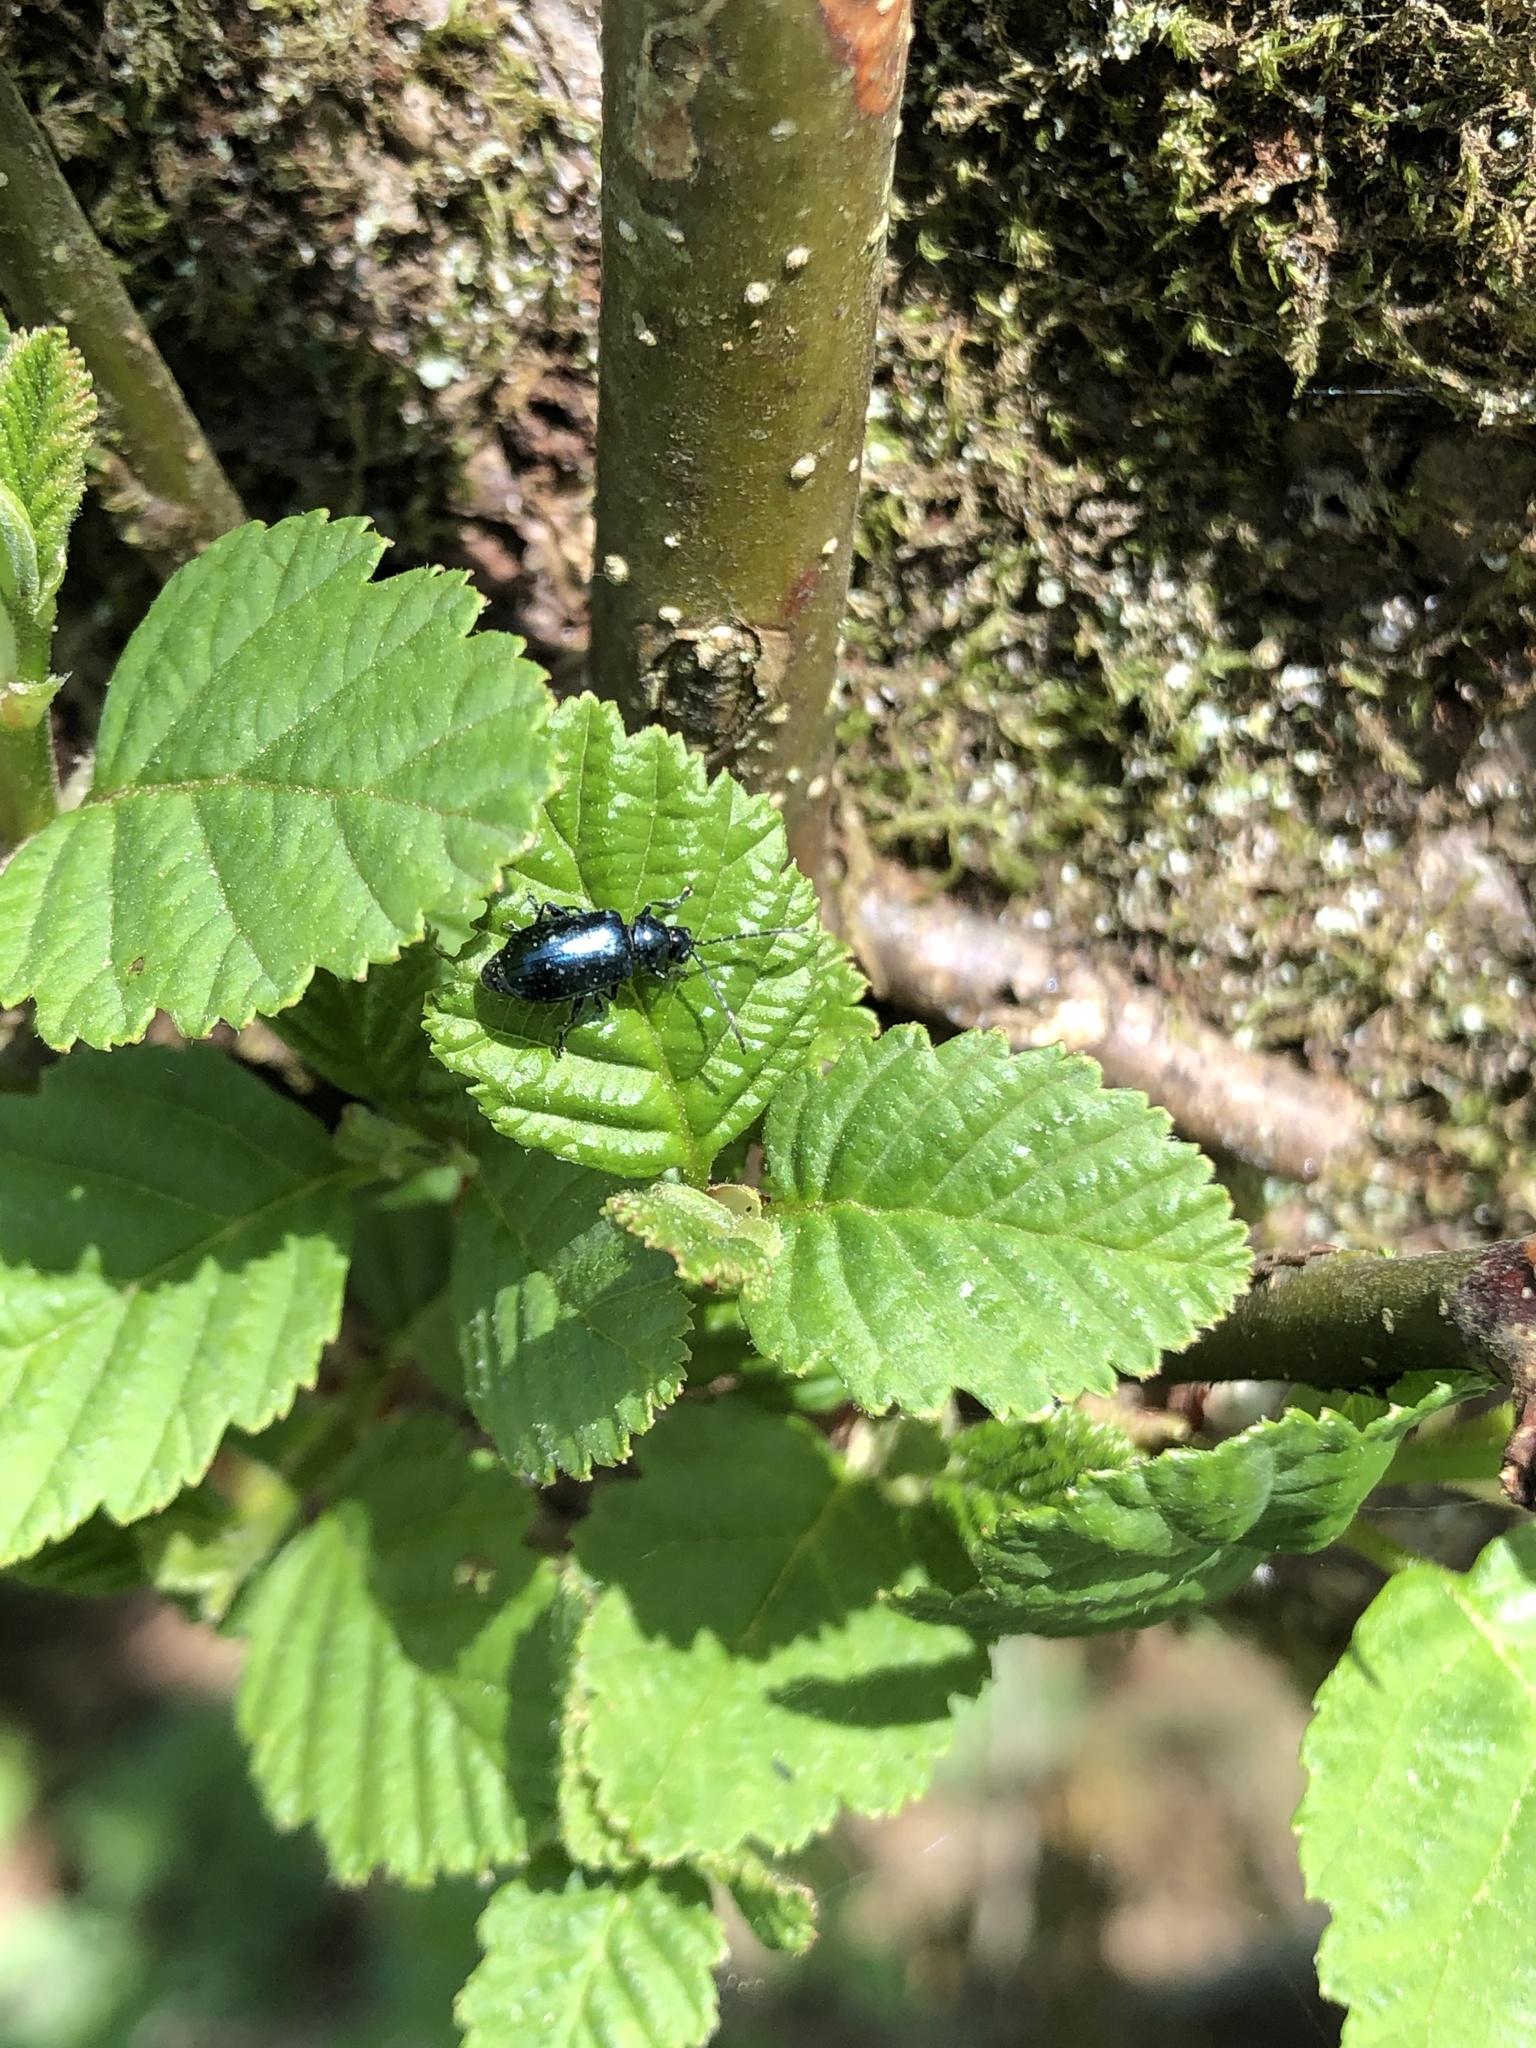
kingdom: Animalia
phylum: Arthropoda
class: Insecta
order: Coleoptera
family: Chrysomelidae
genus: Altica
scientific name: Altica ambiens
